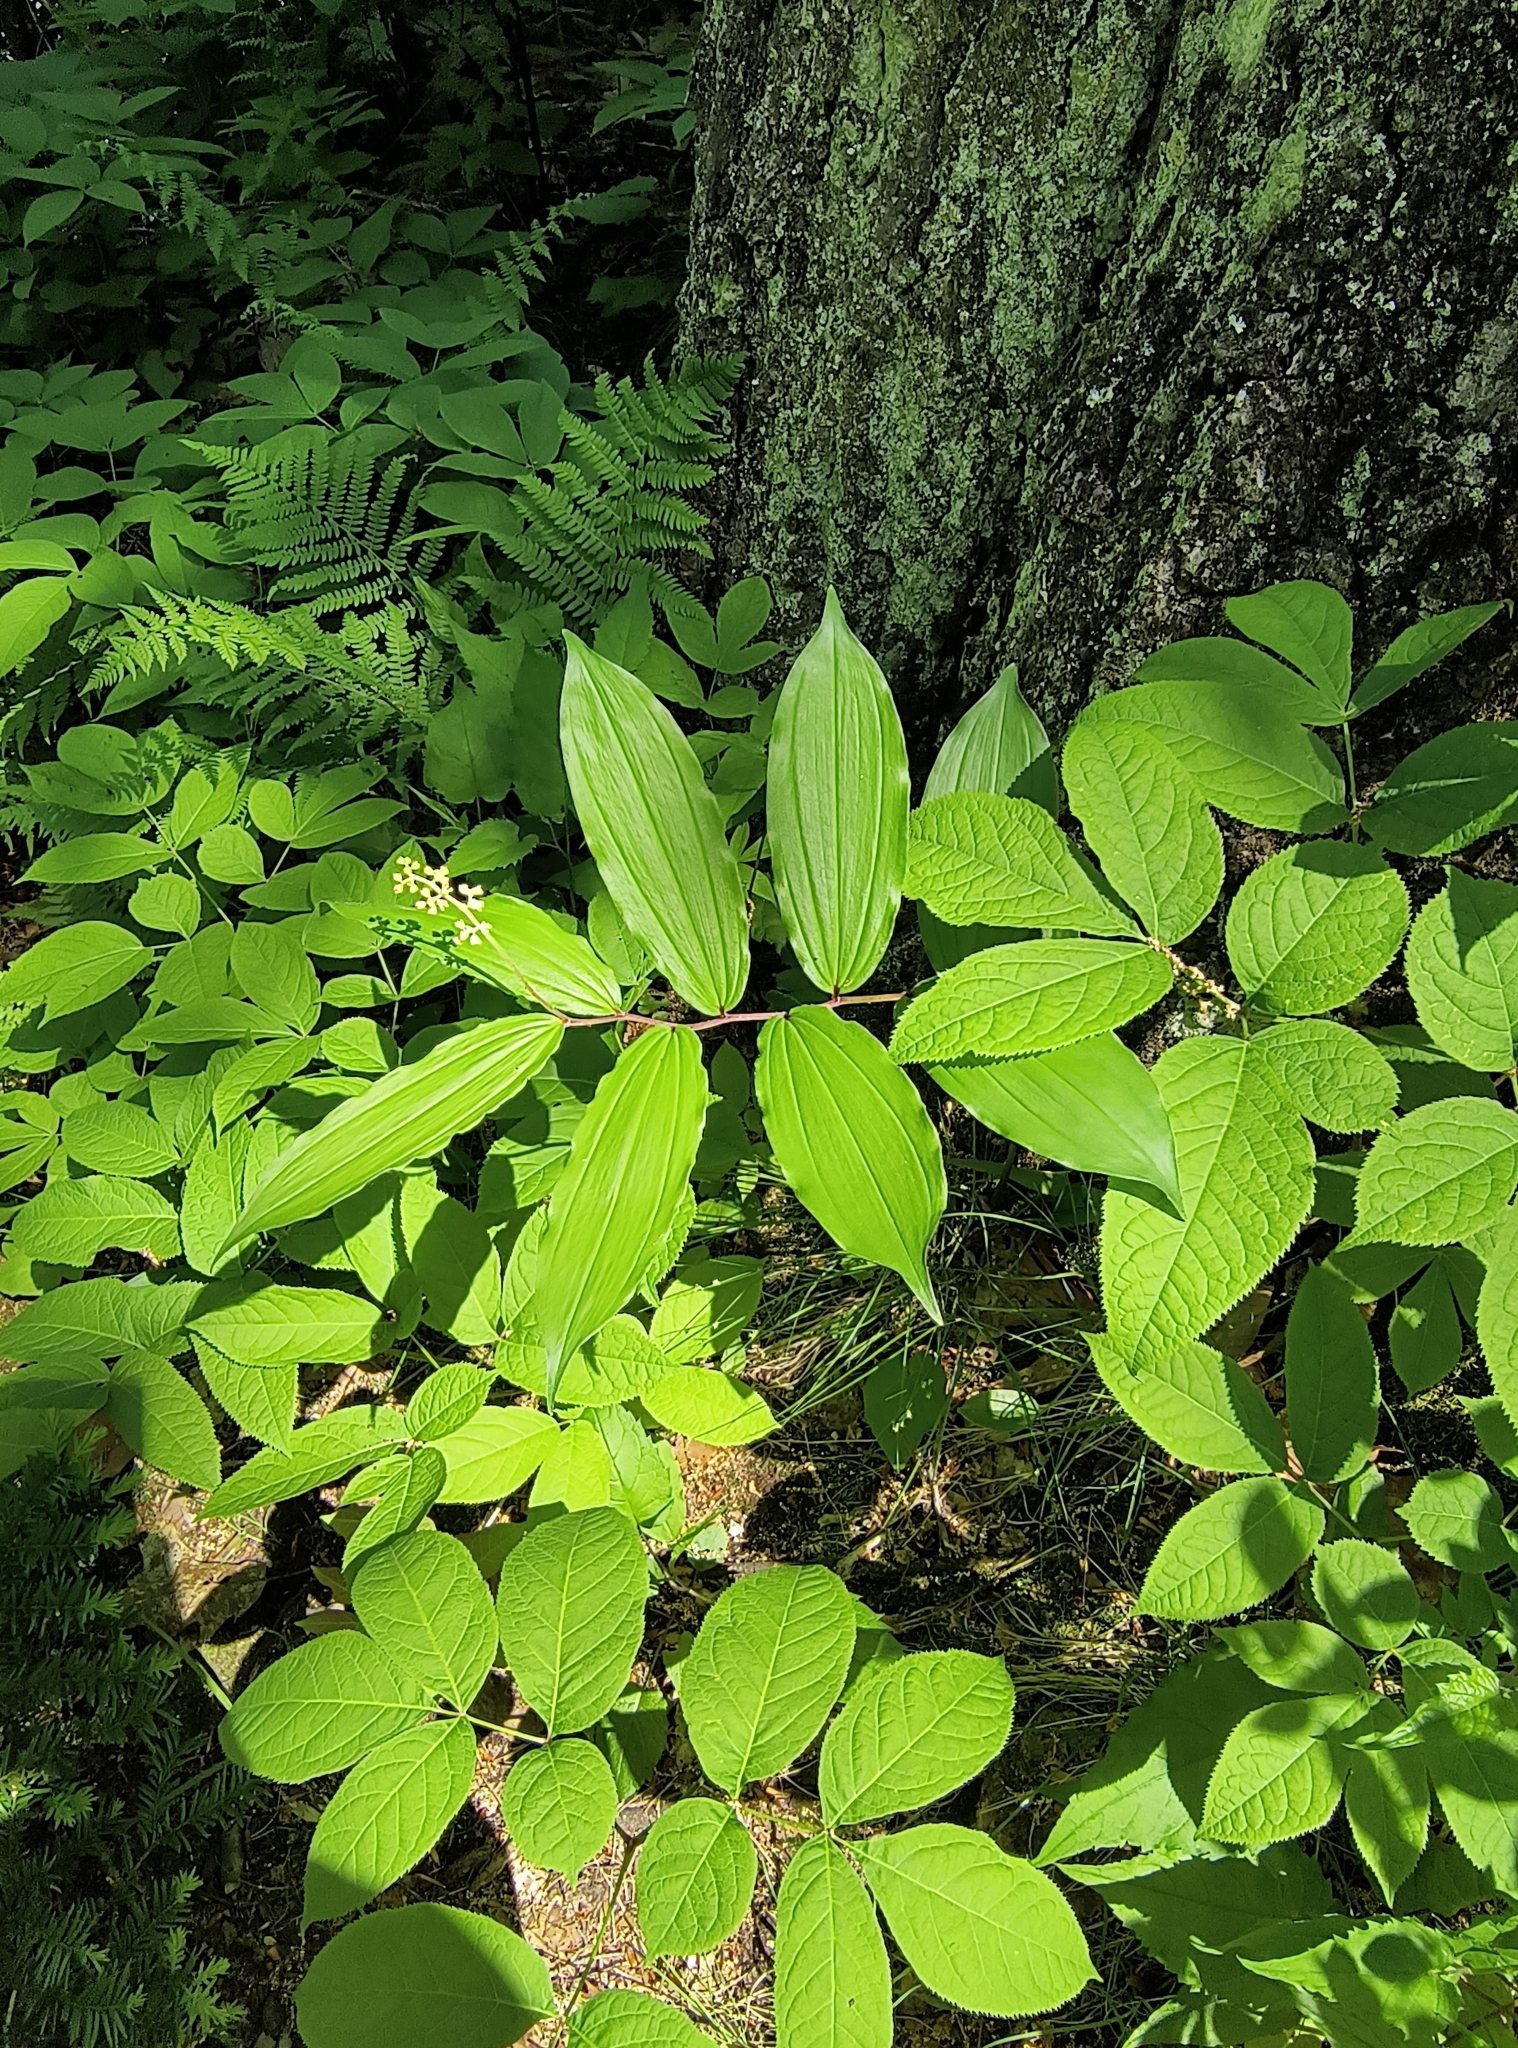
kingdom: Plantae
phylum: Tracheophyta
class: Liliopsida
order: Asparagales
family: Asparagaceae
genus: Maianthemum
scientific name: Maianthemum racemosum
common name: False spikenard
